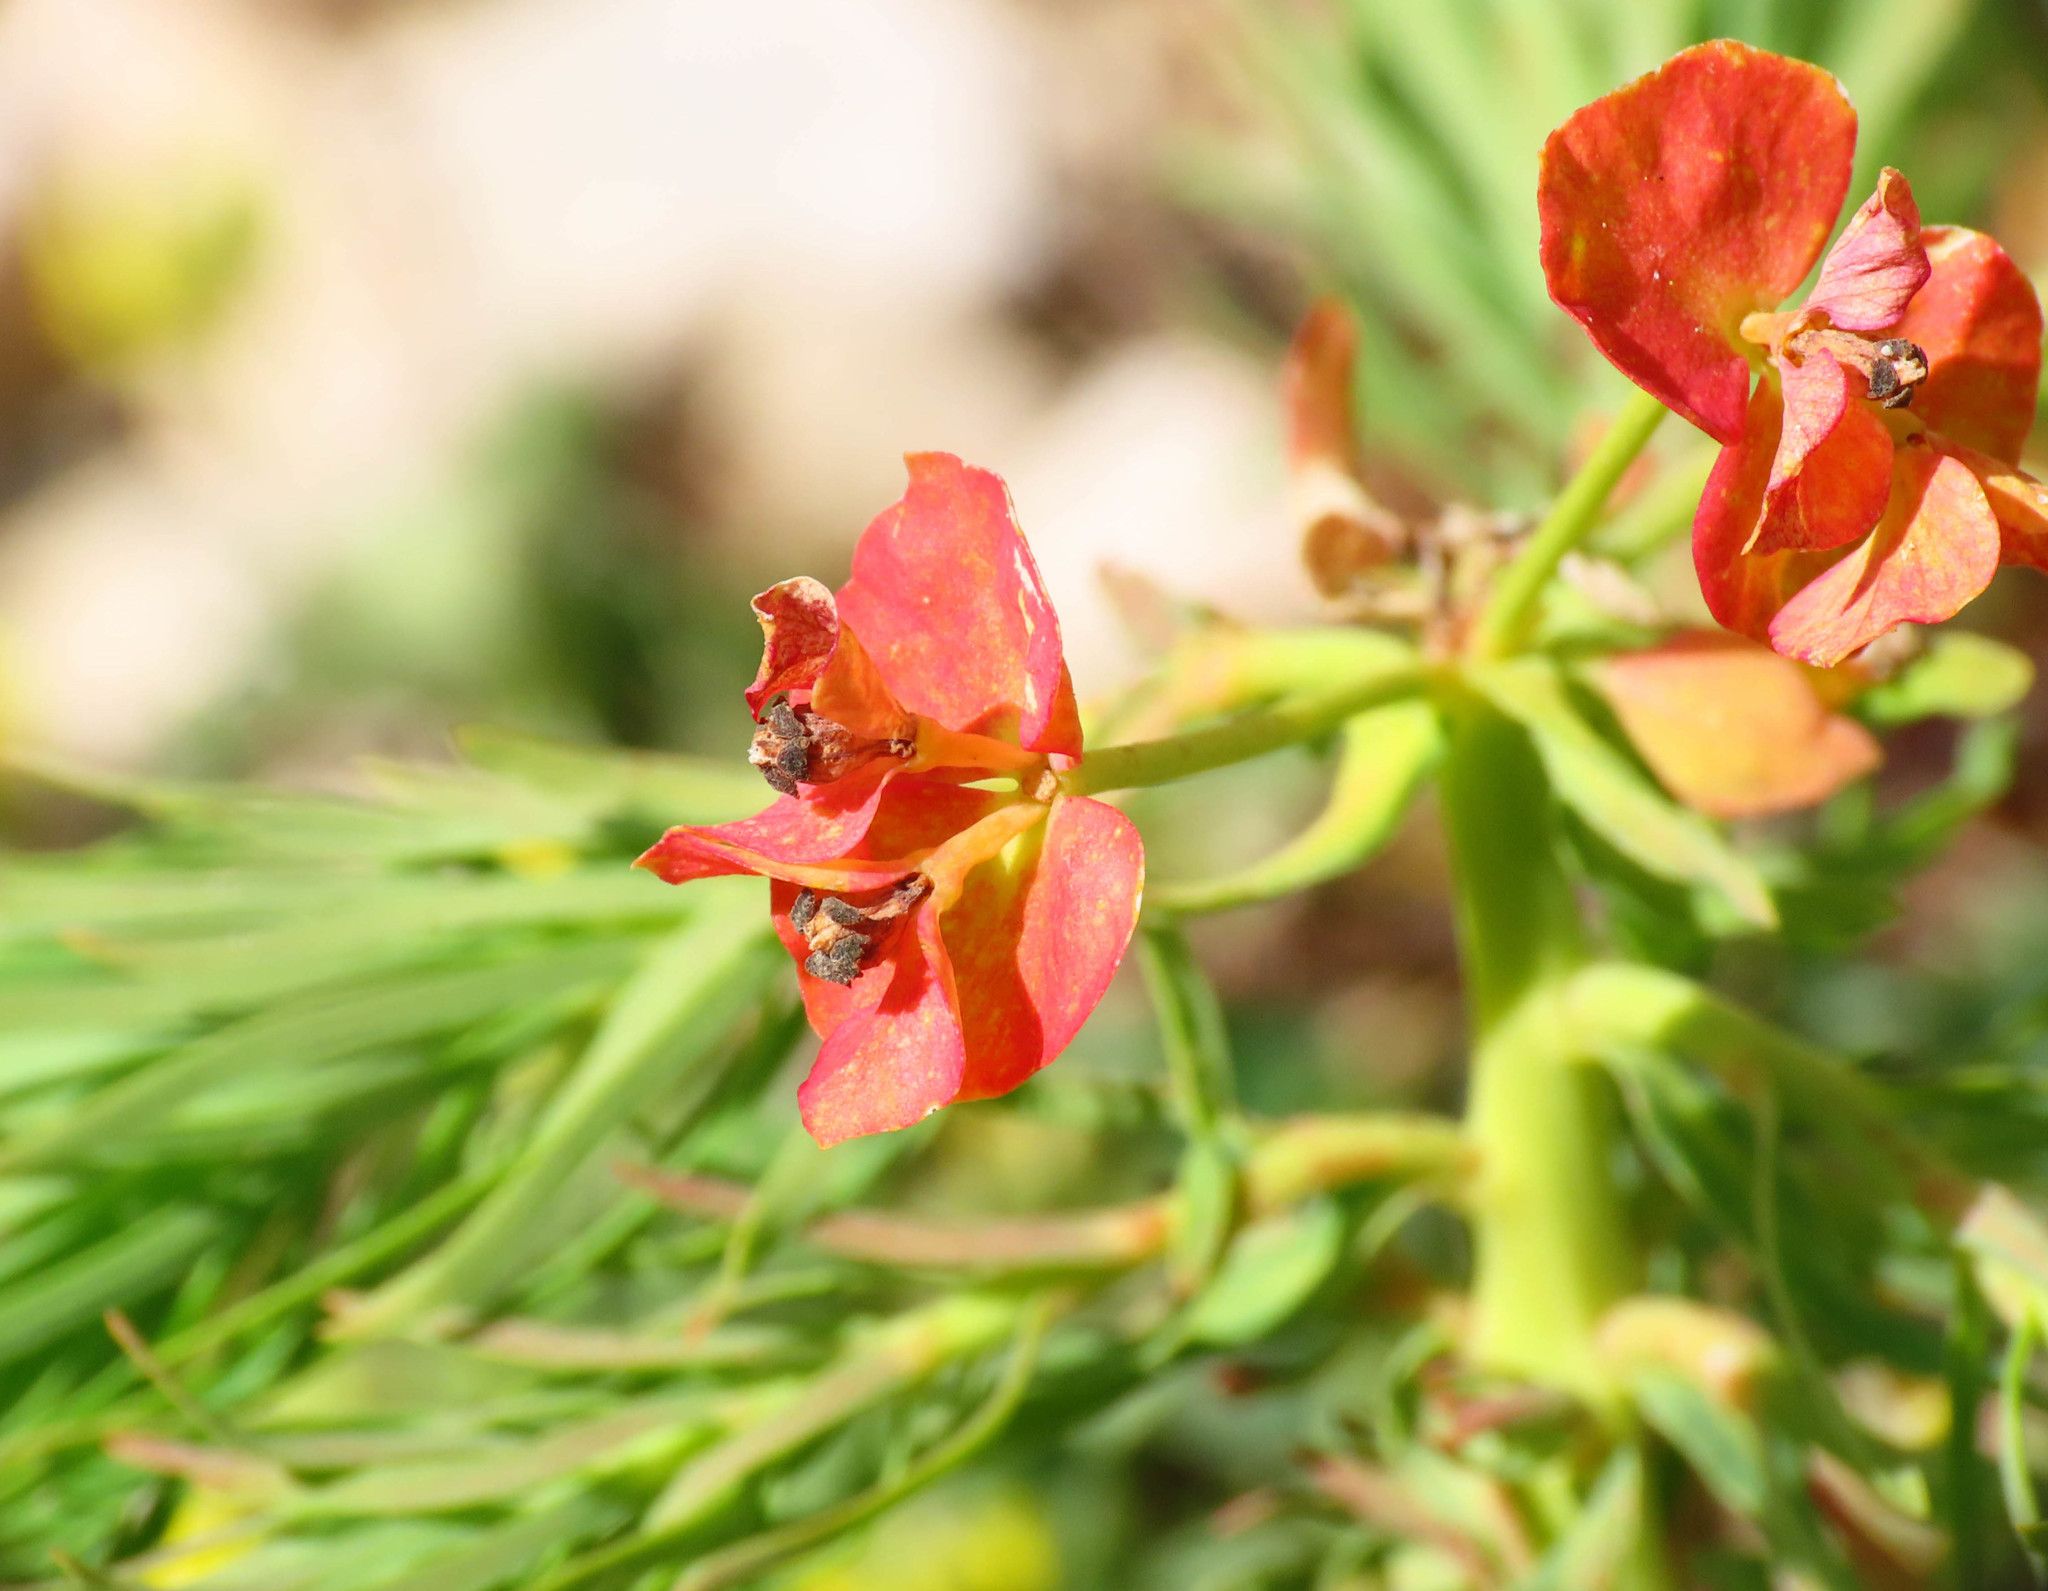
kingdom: Plantae
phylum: Tracheophyta
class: Magnoliopsida
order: Malpighiales
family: Euphorbiaceae
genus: Euphorbia
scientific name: Euphorbia cyparissias
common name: Cypress spurge
